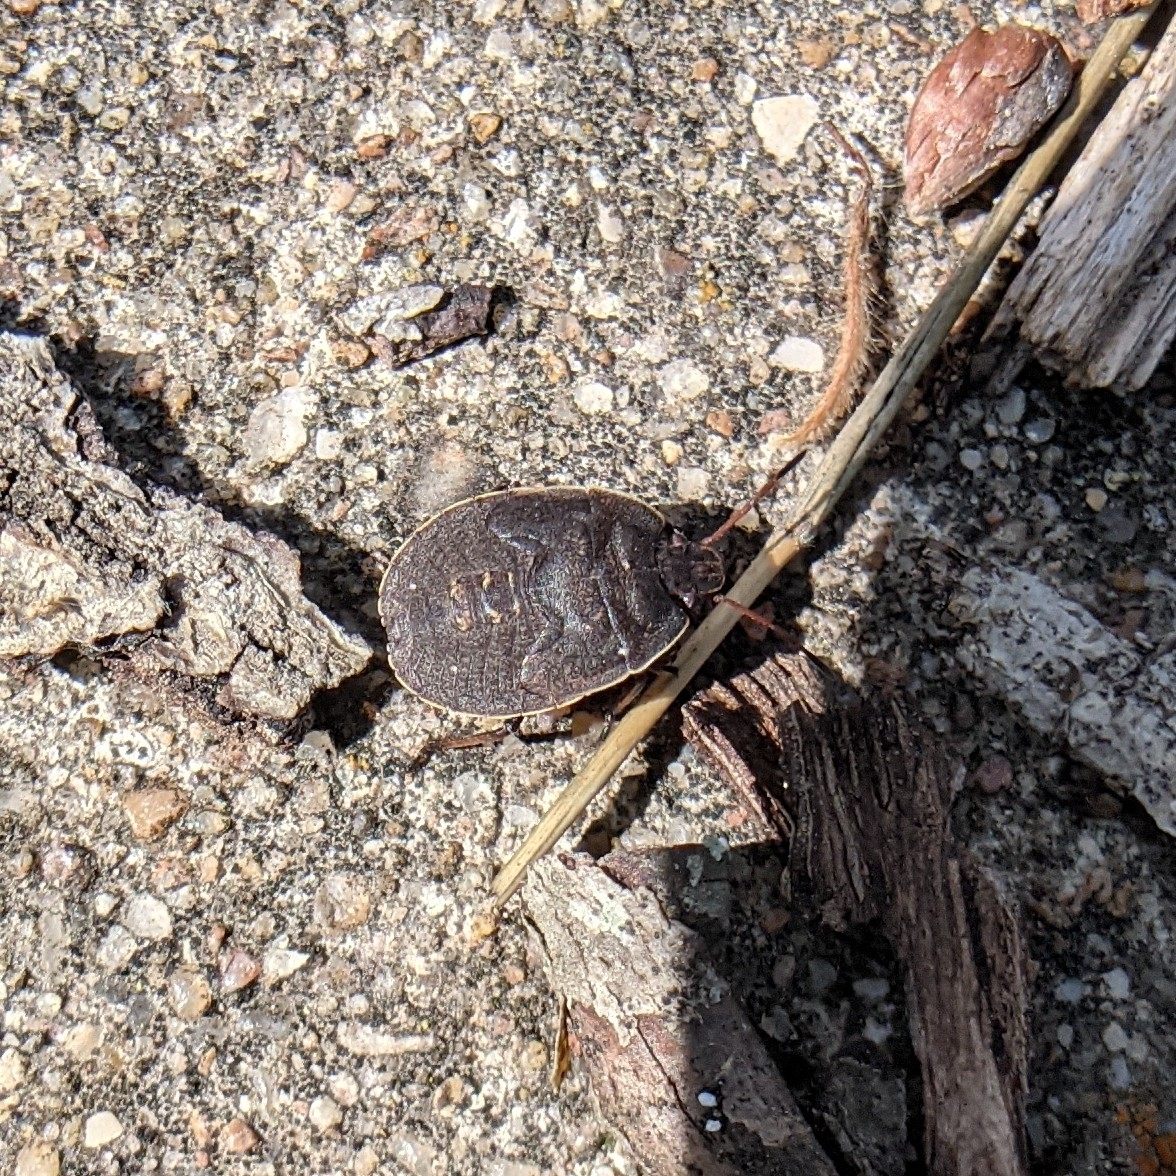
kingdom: Animalia
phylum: Arthropoda
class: Insecta
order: Hemiptera
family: Pentatomidae
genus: Menecles
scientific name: Menecles insertus
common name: Elf shoe stink bug
